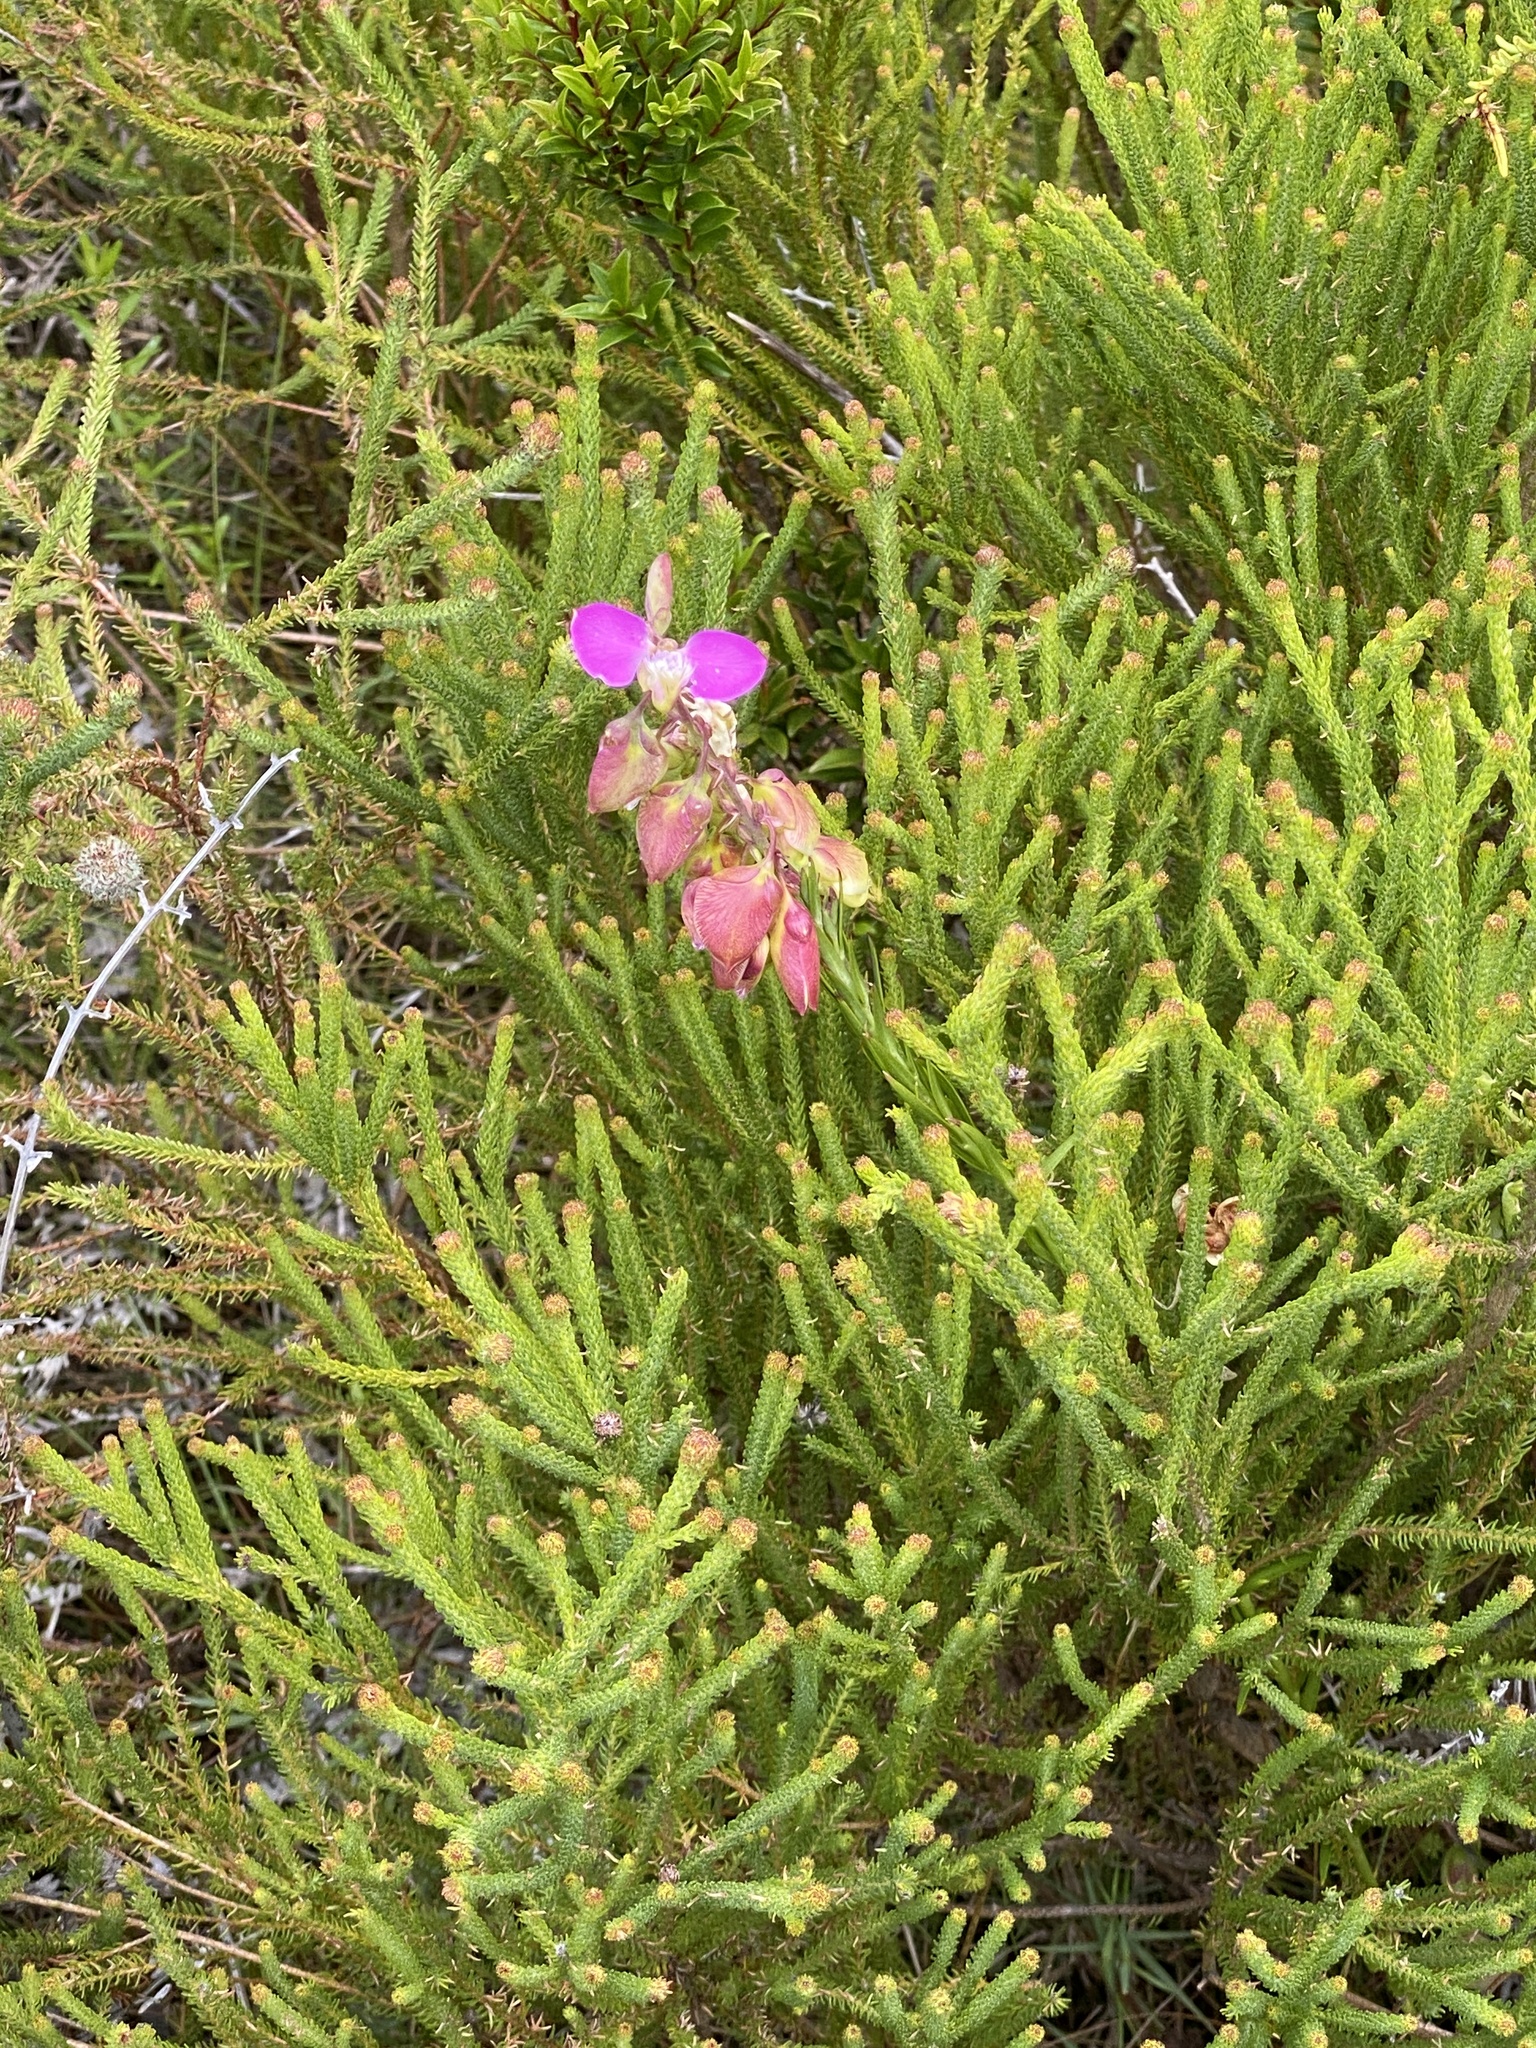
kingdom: Plantae
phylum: Tracheophyta
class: Magnoliopsida
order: Fabales
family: Polygalaceae
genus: Polygala
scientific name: Polygala bracteolata
